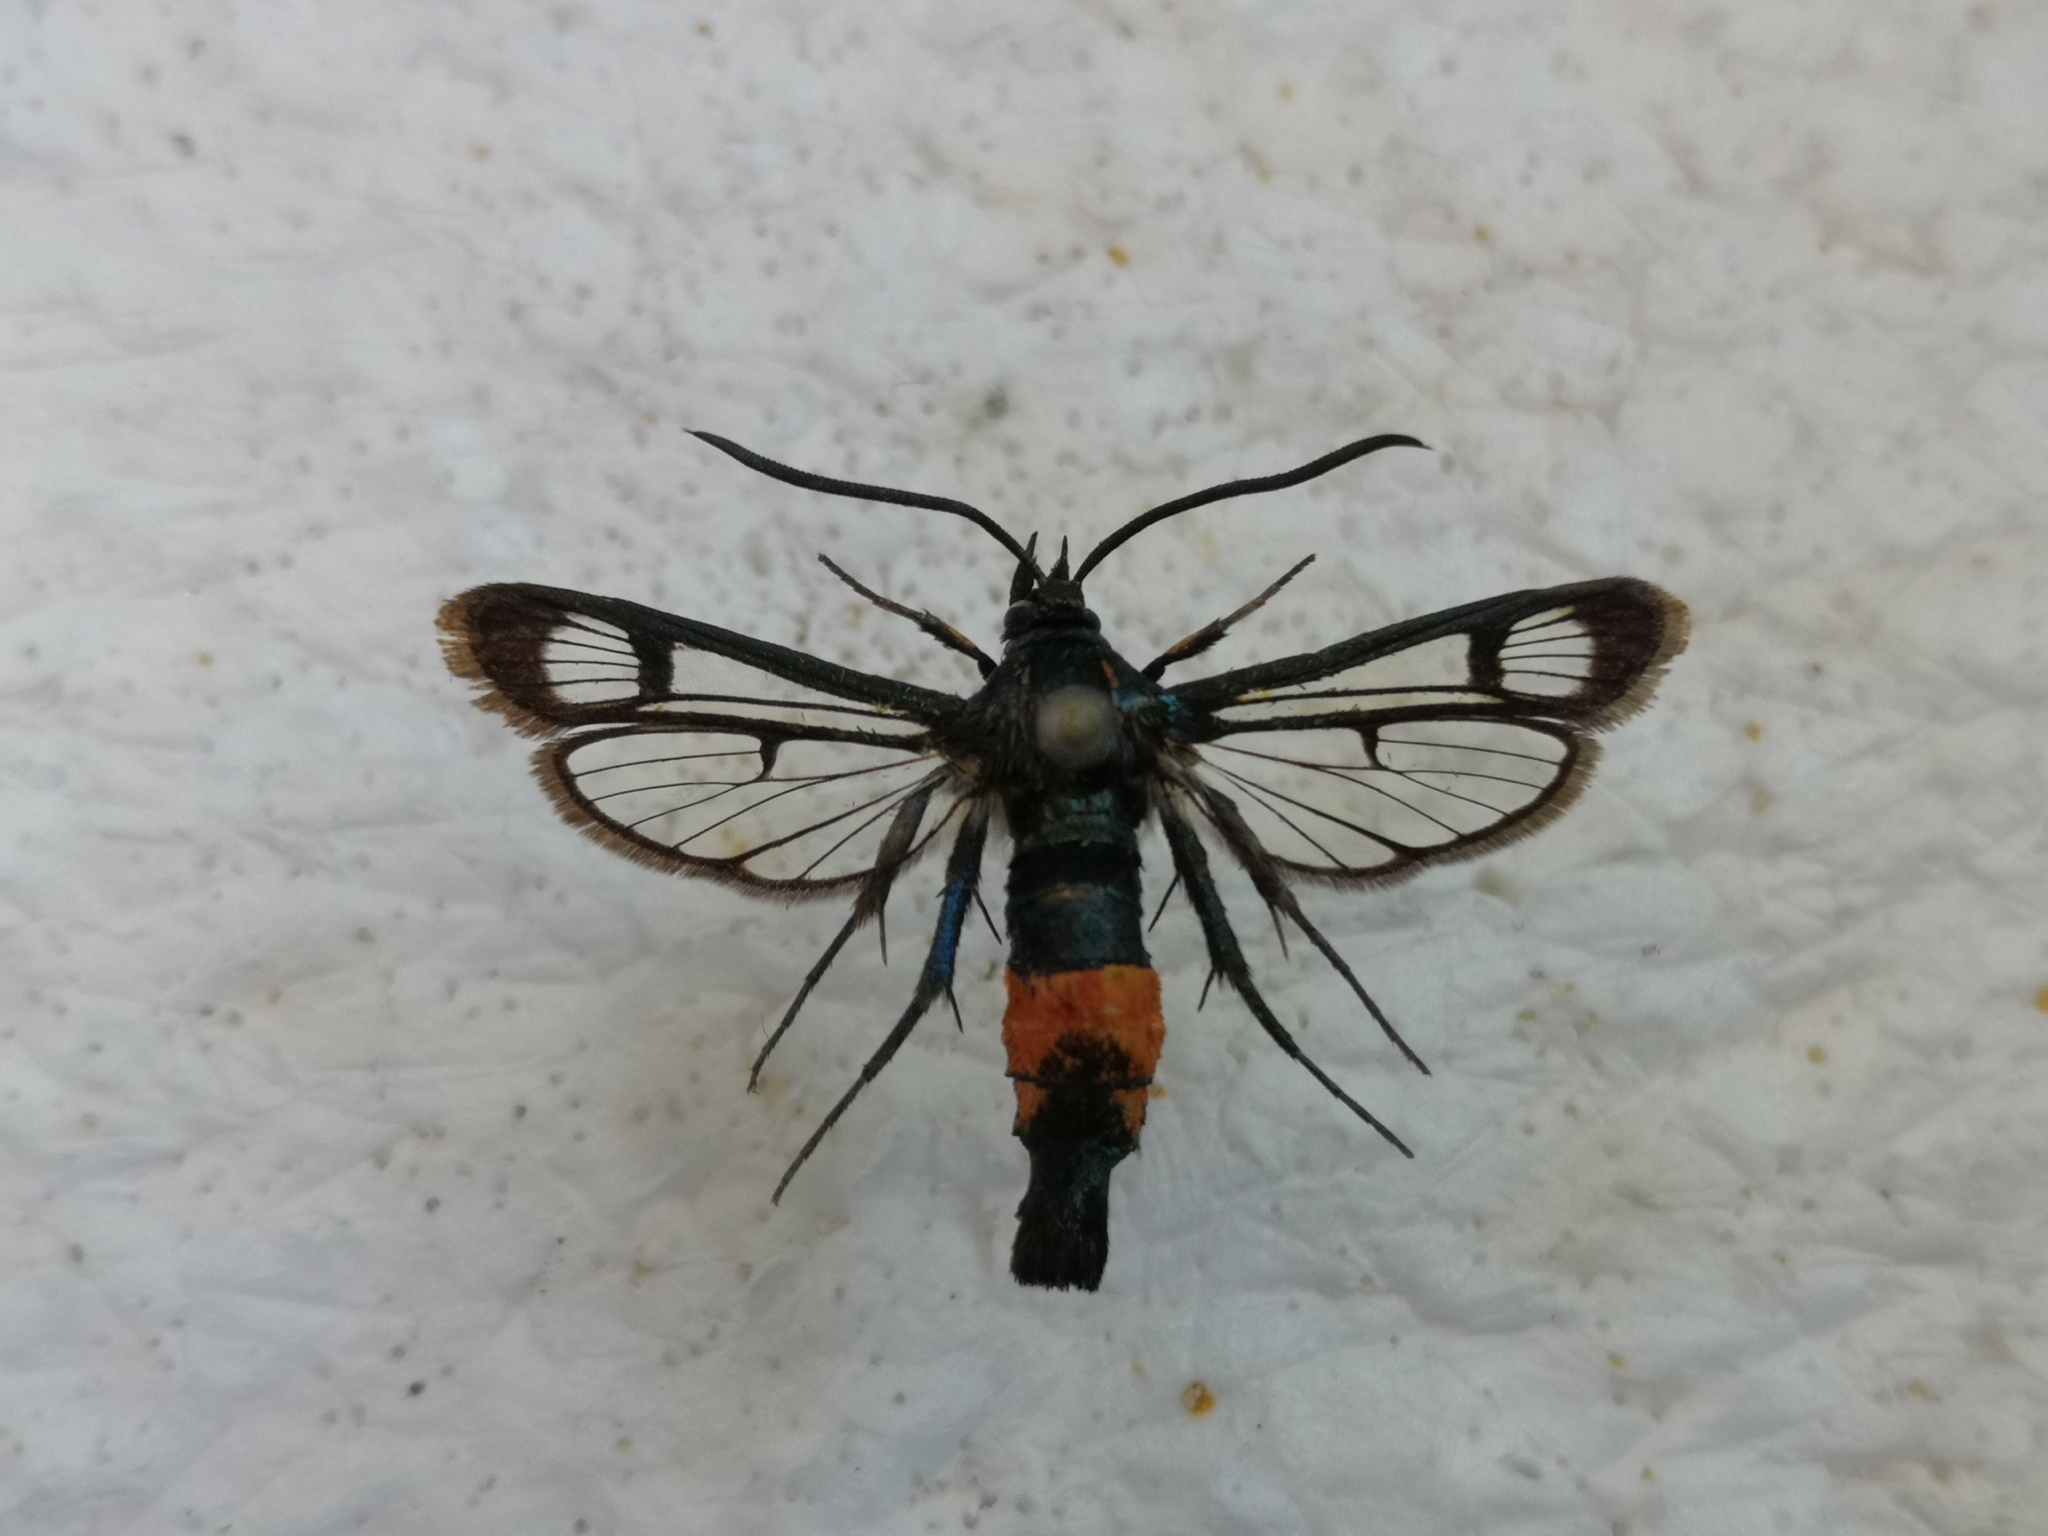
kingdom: Animalia
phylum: Arthropoda
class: Insecta
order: Lepidoptera
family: Sesiidae
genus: Synanthedon
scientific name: Synanthedon stomoxiformis
